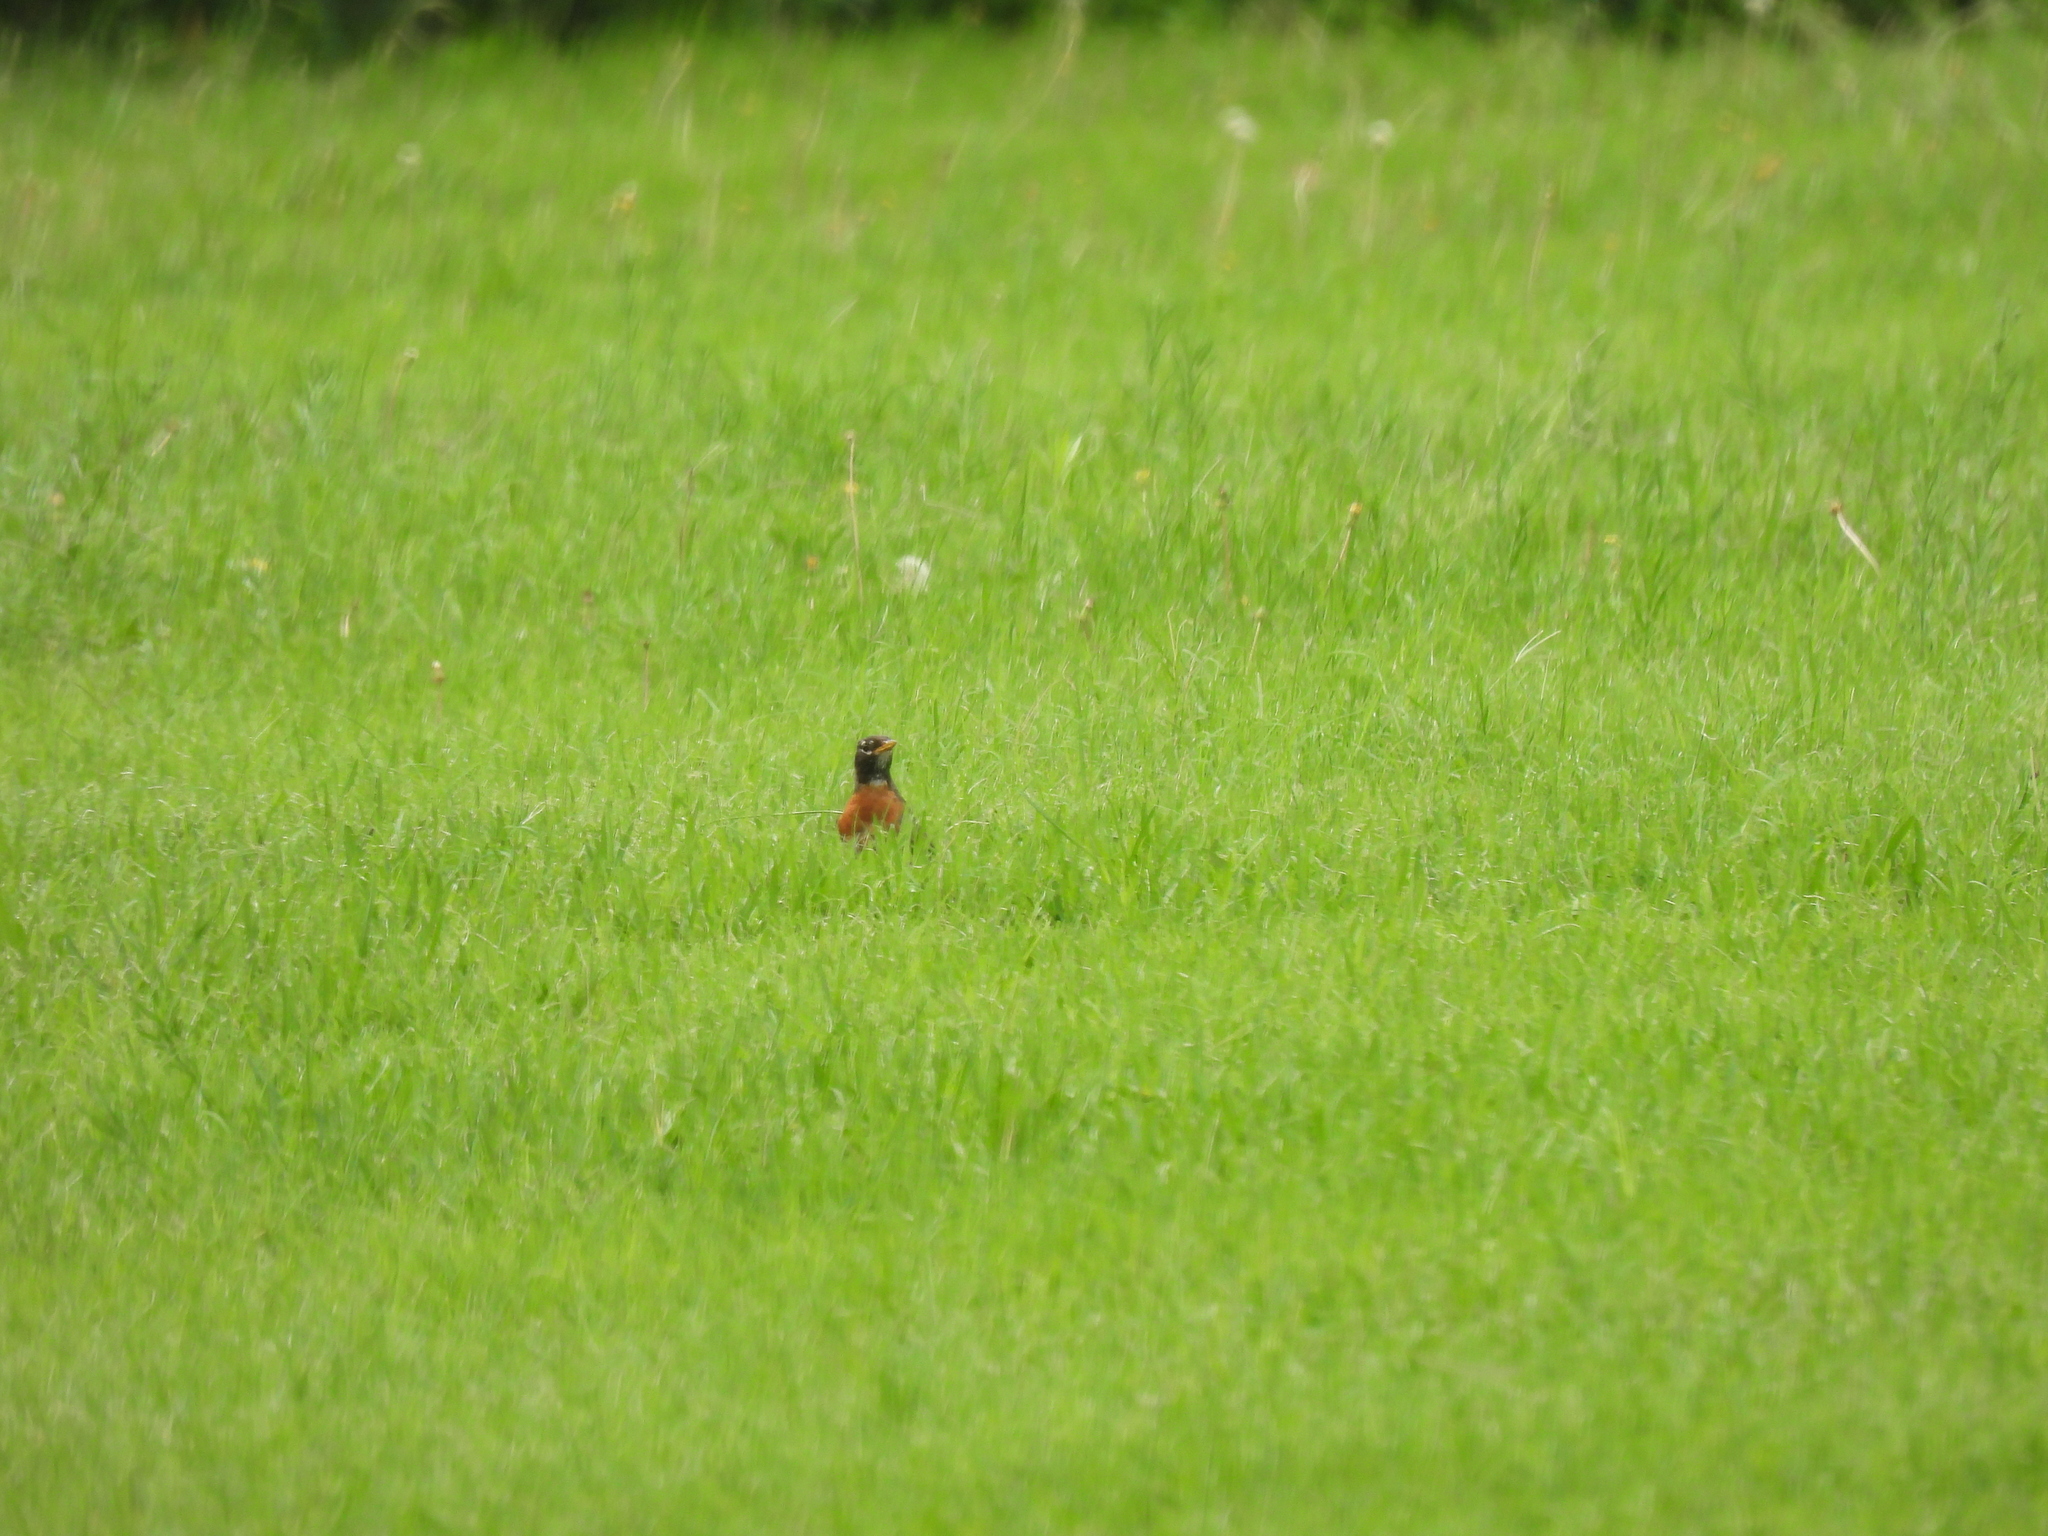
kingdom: Animalia
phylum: Chordata
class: Aves
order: Passeriformes
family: Turdidae
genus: Turdus
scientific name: Turdus migratorius
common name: American robin
